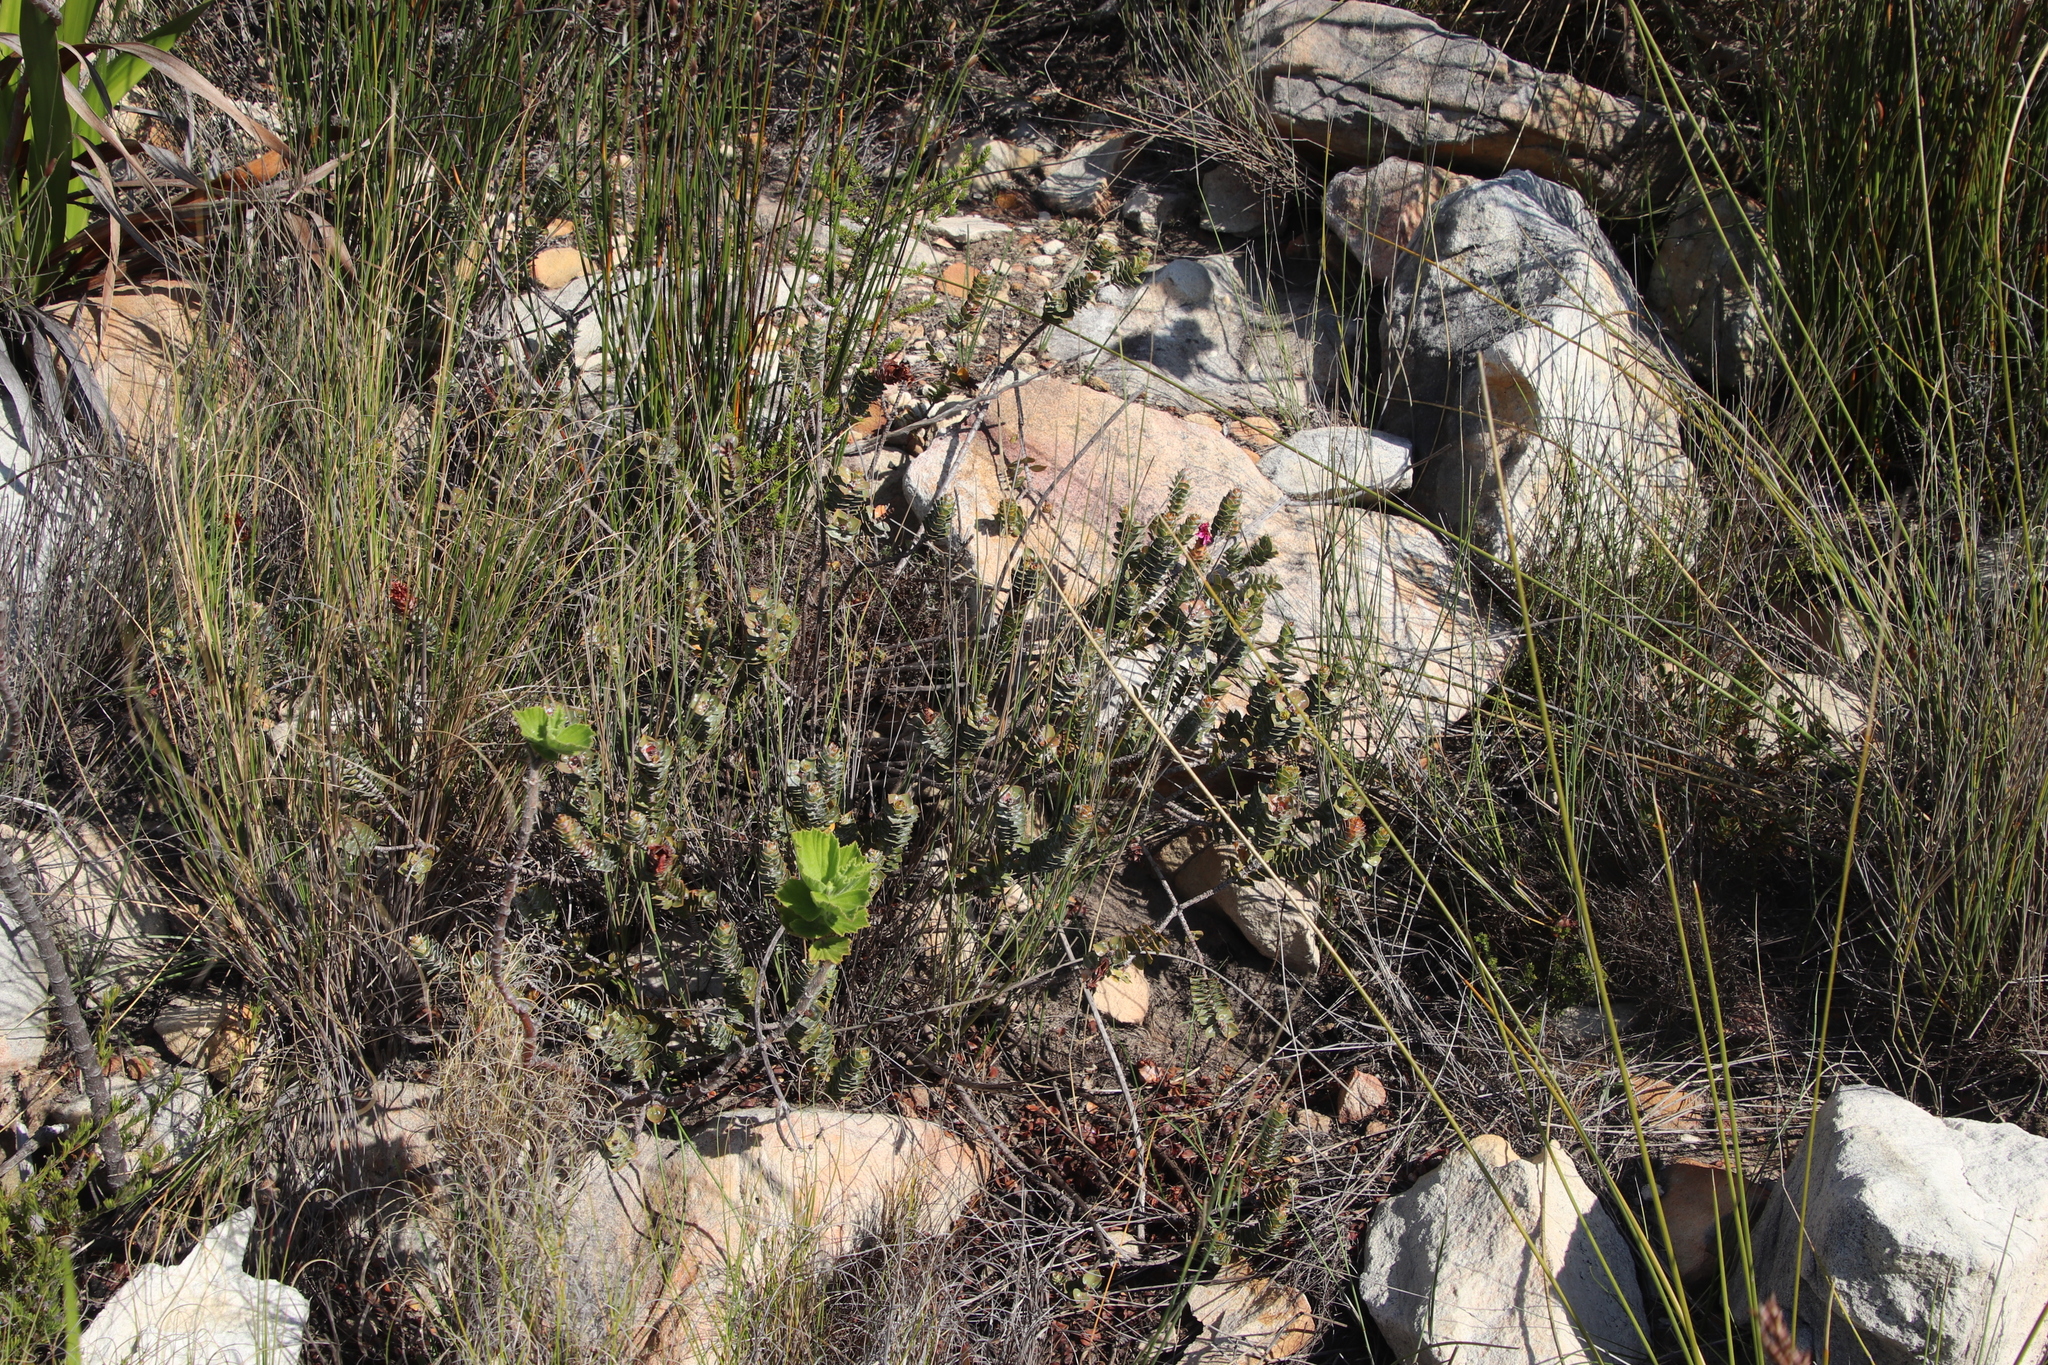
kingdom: Plantae
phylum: Tracheophyta
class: Magnoliopsida
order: Myrtales
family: Penaeaceae
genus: Saltera
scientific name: Saltera sarcocolla
